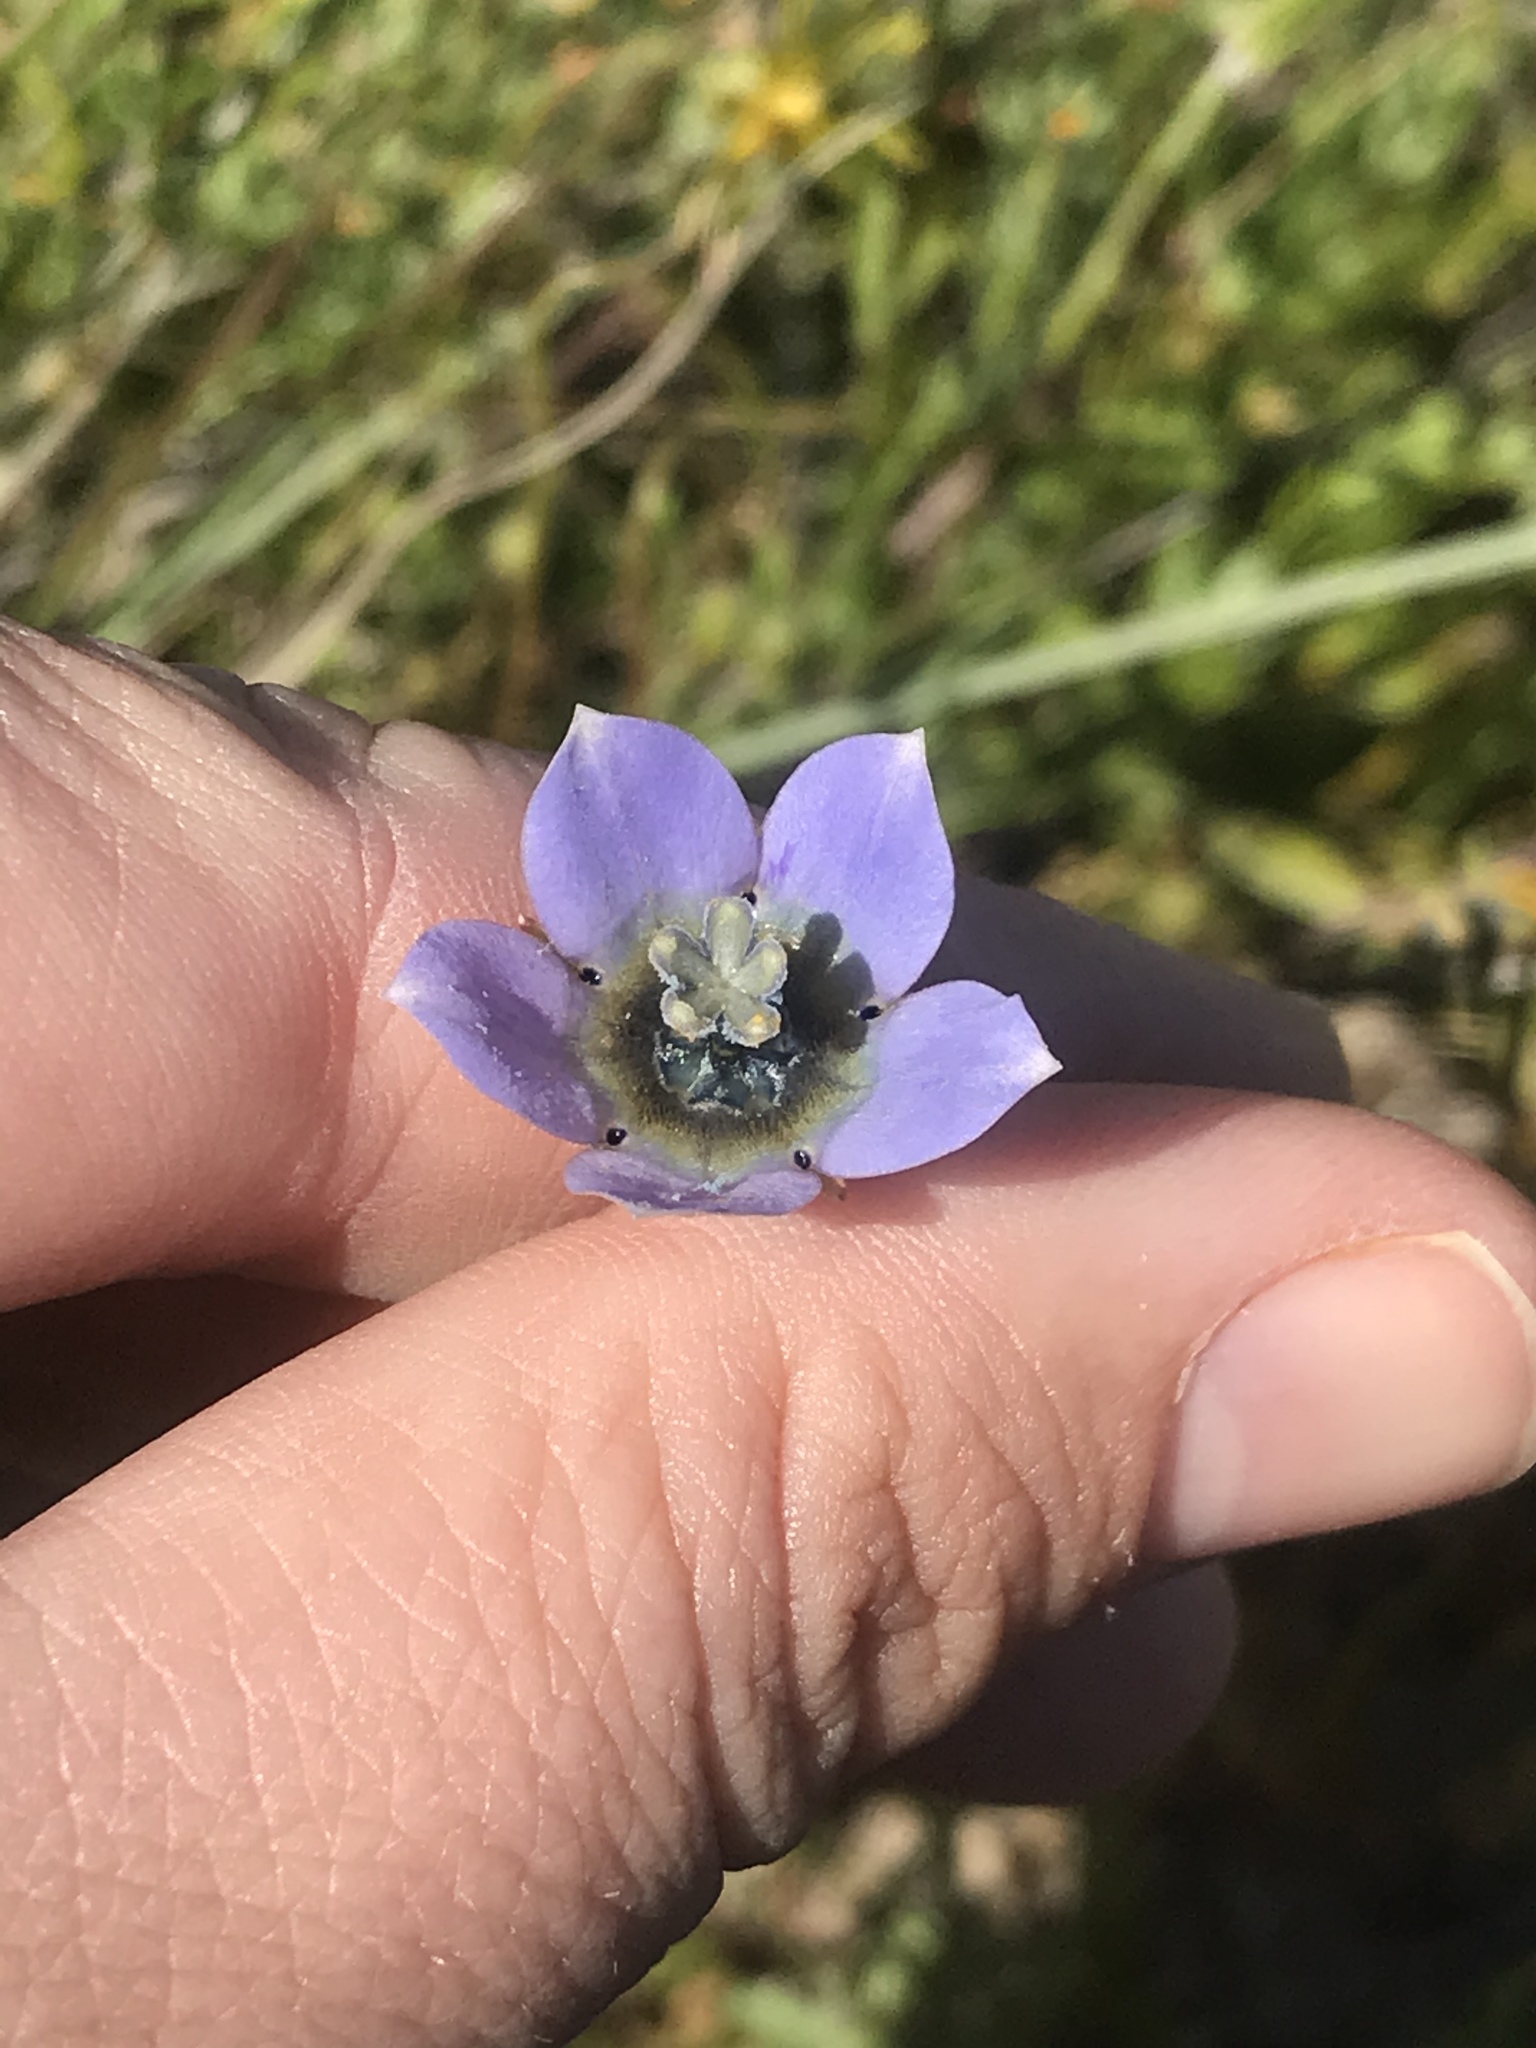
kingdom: Plantae
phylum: Tracheophyta
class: Magnoliopsida
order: Asterales
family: Campanulaceae
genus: Wahlenbergia
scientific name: Wahlenbergia capensis
